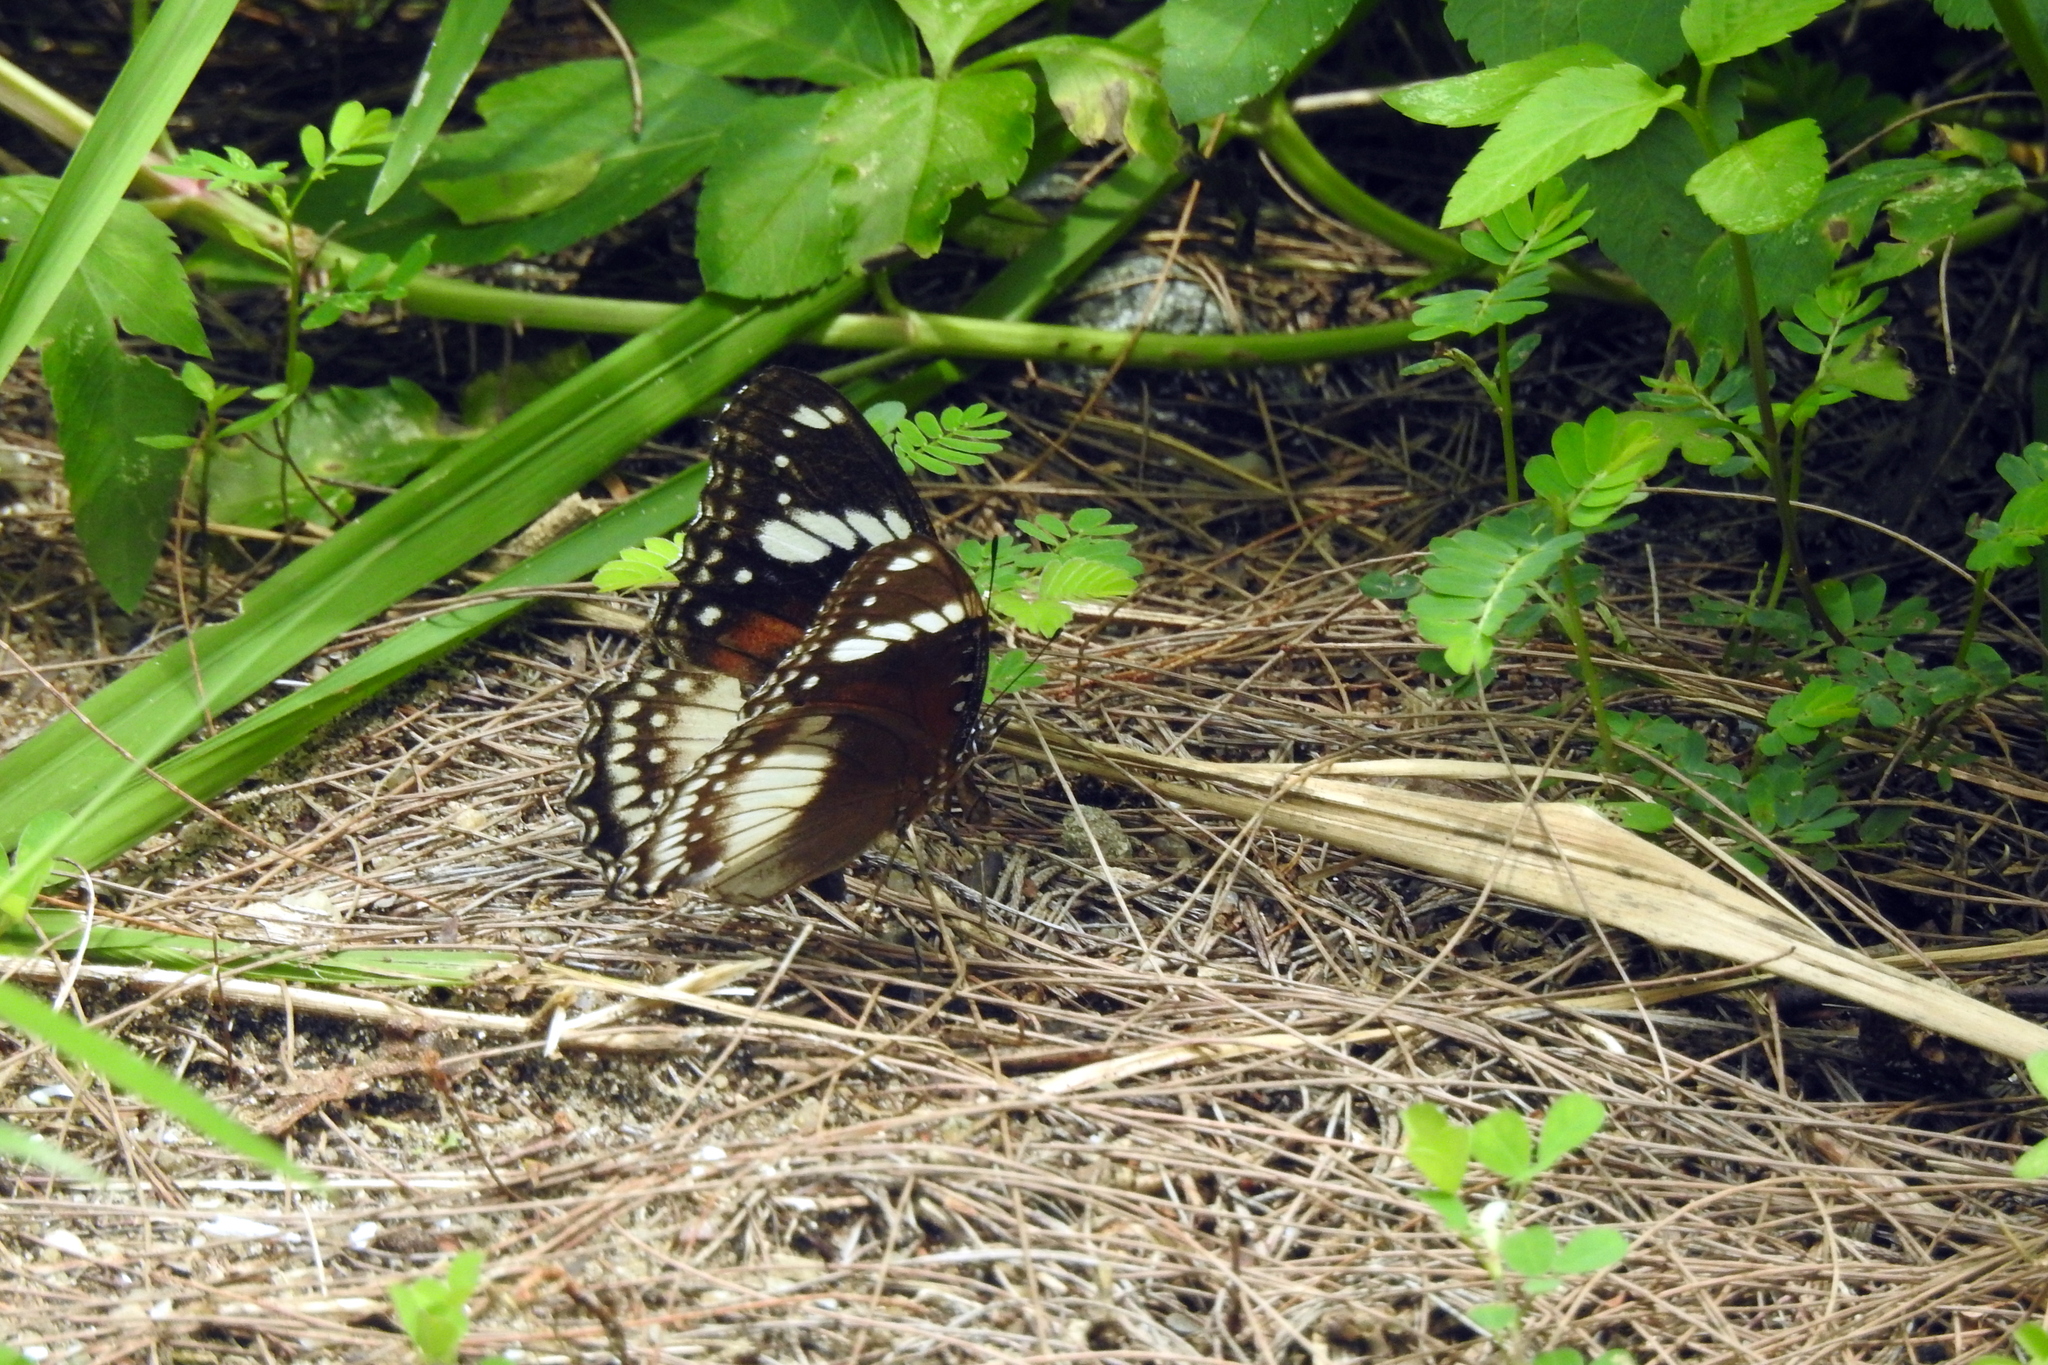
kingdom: Animalia
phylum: Arthropoda
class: Insecta
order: Lepidoptera
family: Nymphalidae
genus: Hypolimnas
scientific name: Hypolimnas bolina
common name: Great eggfly
